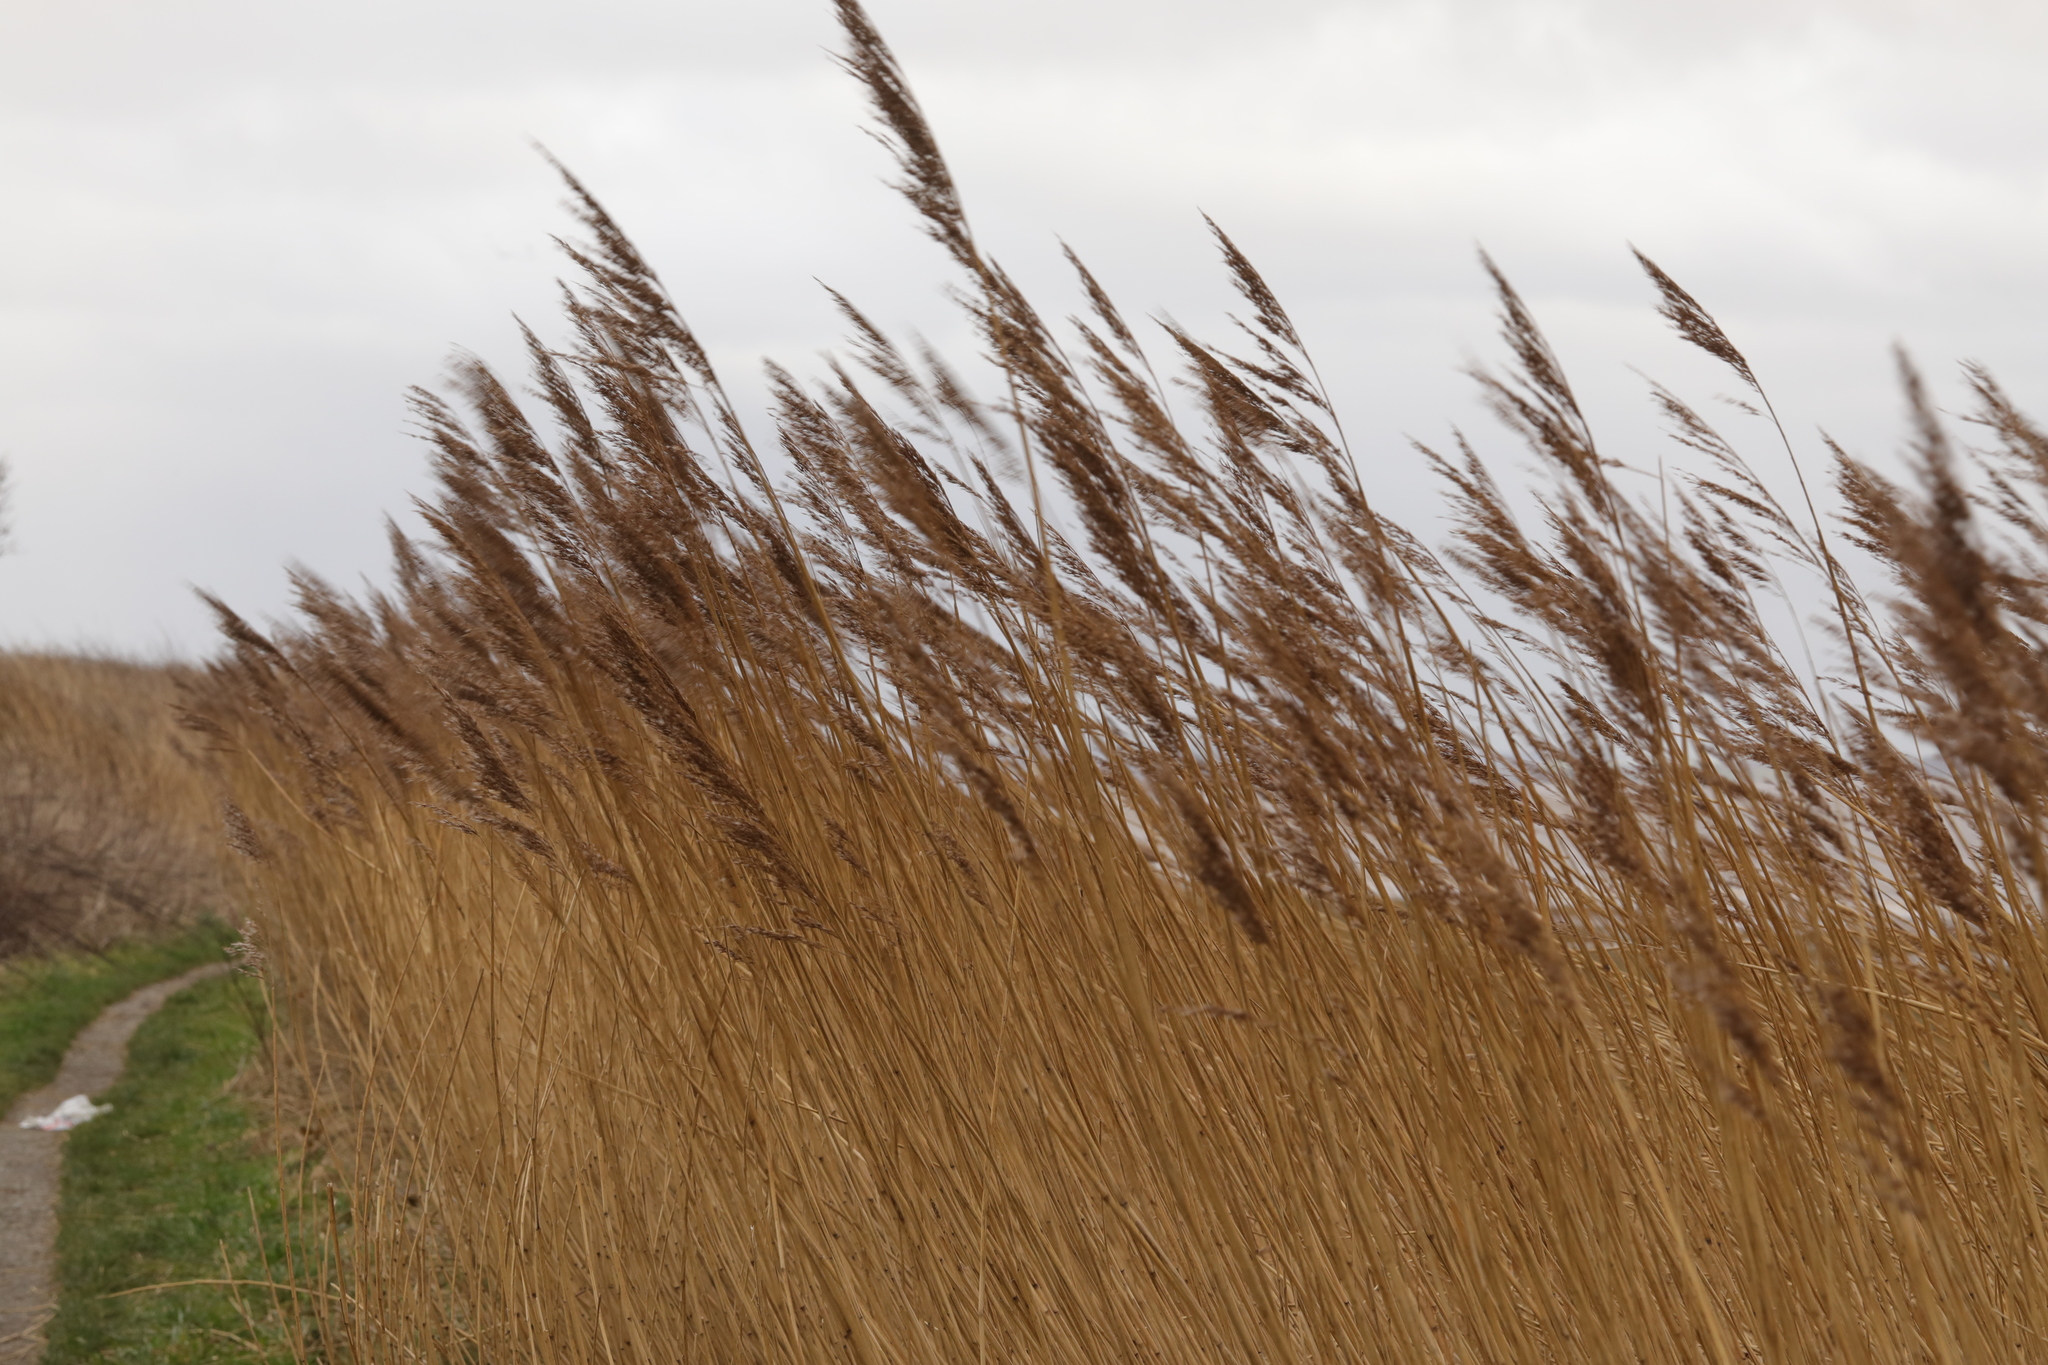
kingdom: Plantae
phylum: Tracheophyta
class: Liliopsida
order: Poales
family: Poaceae
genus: Phragmites
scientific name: Phragmites australis
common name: Common reed
